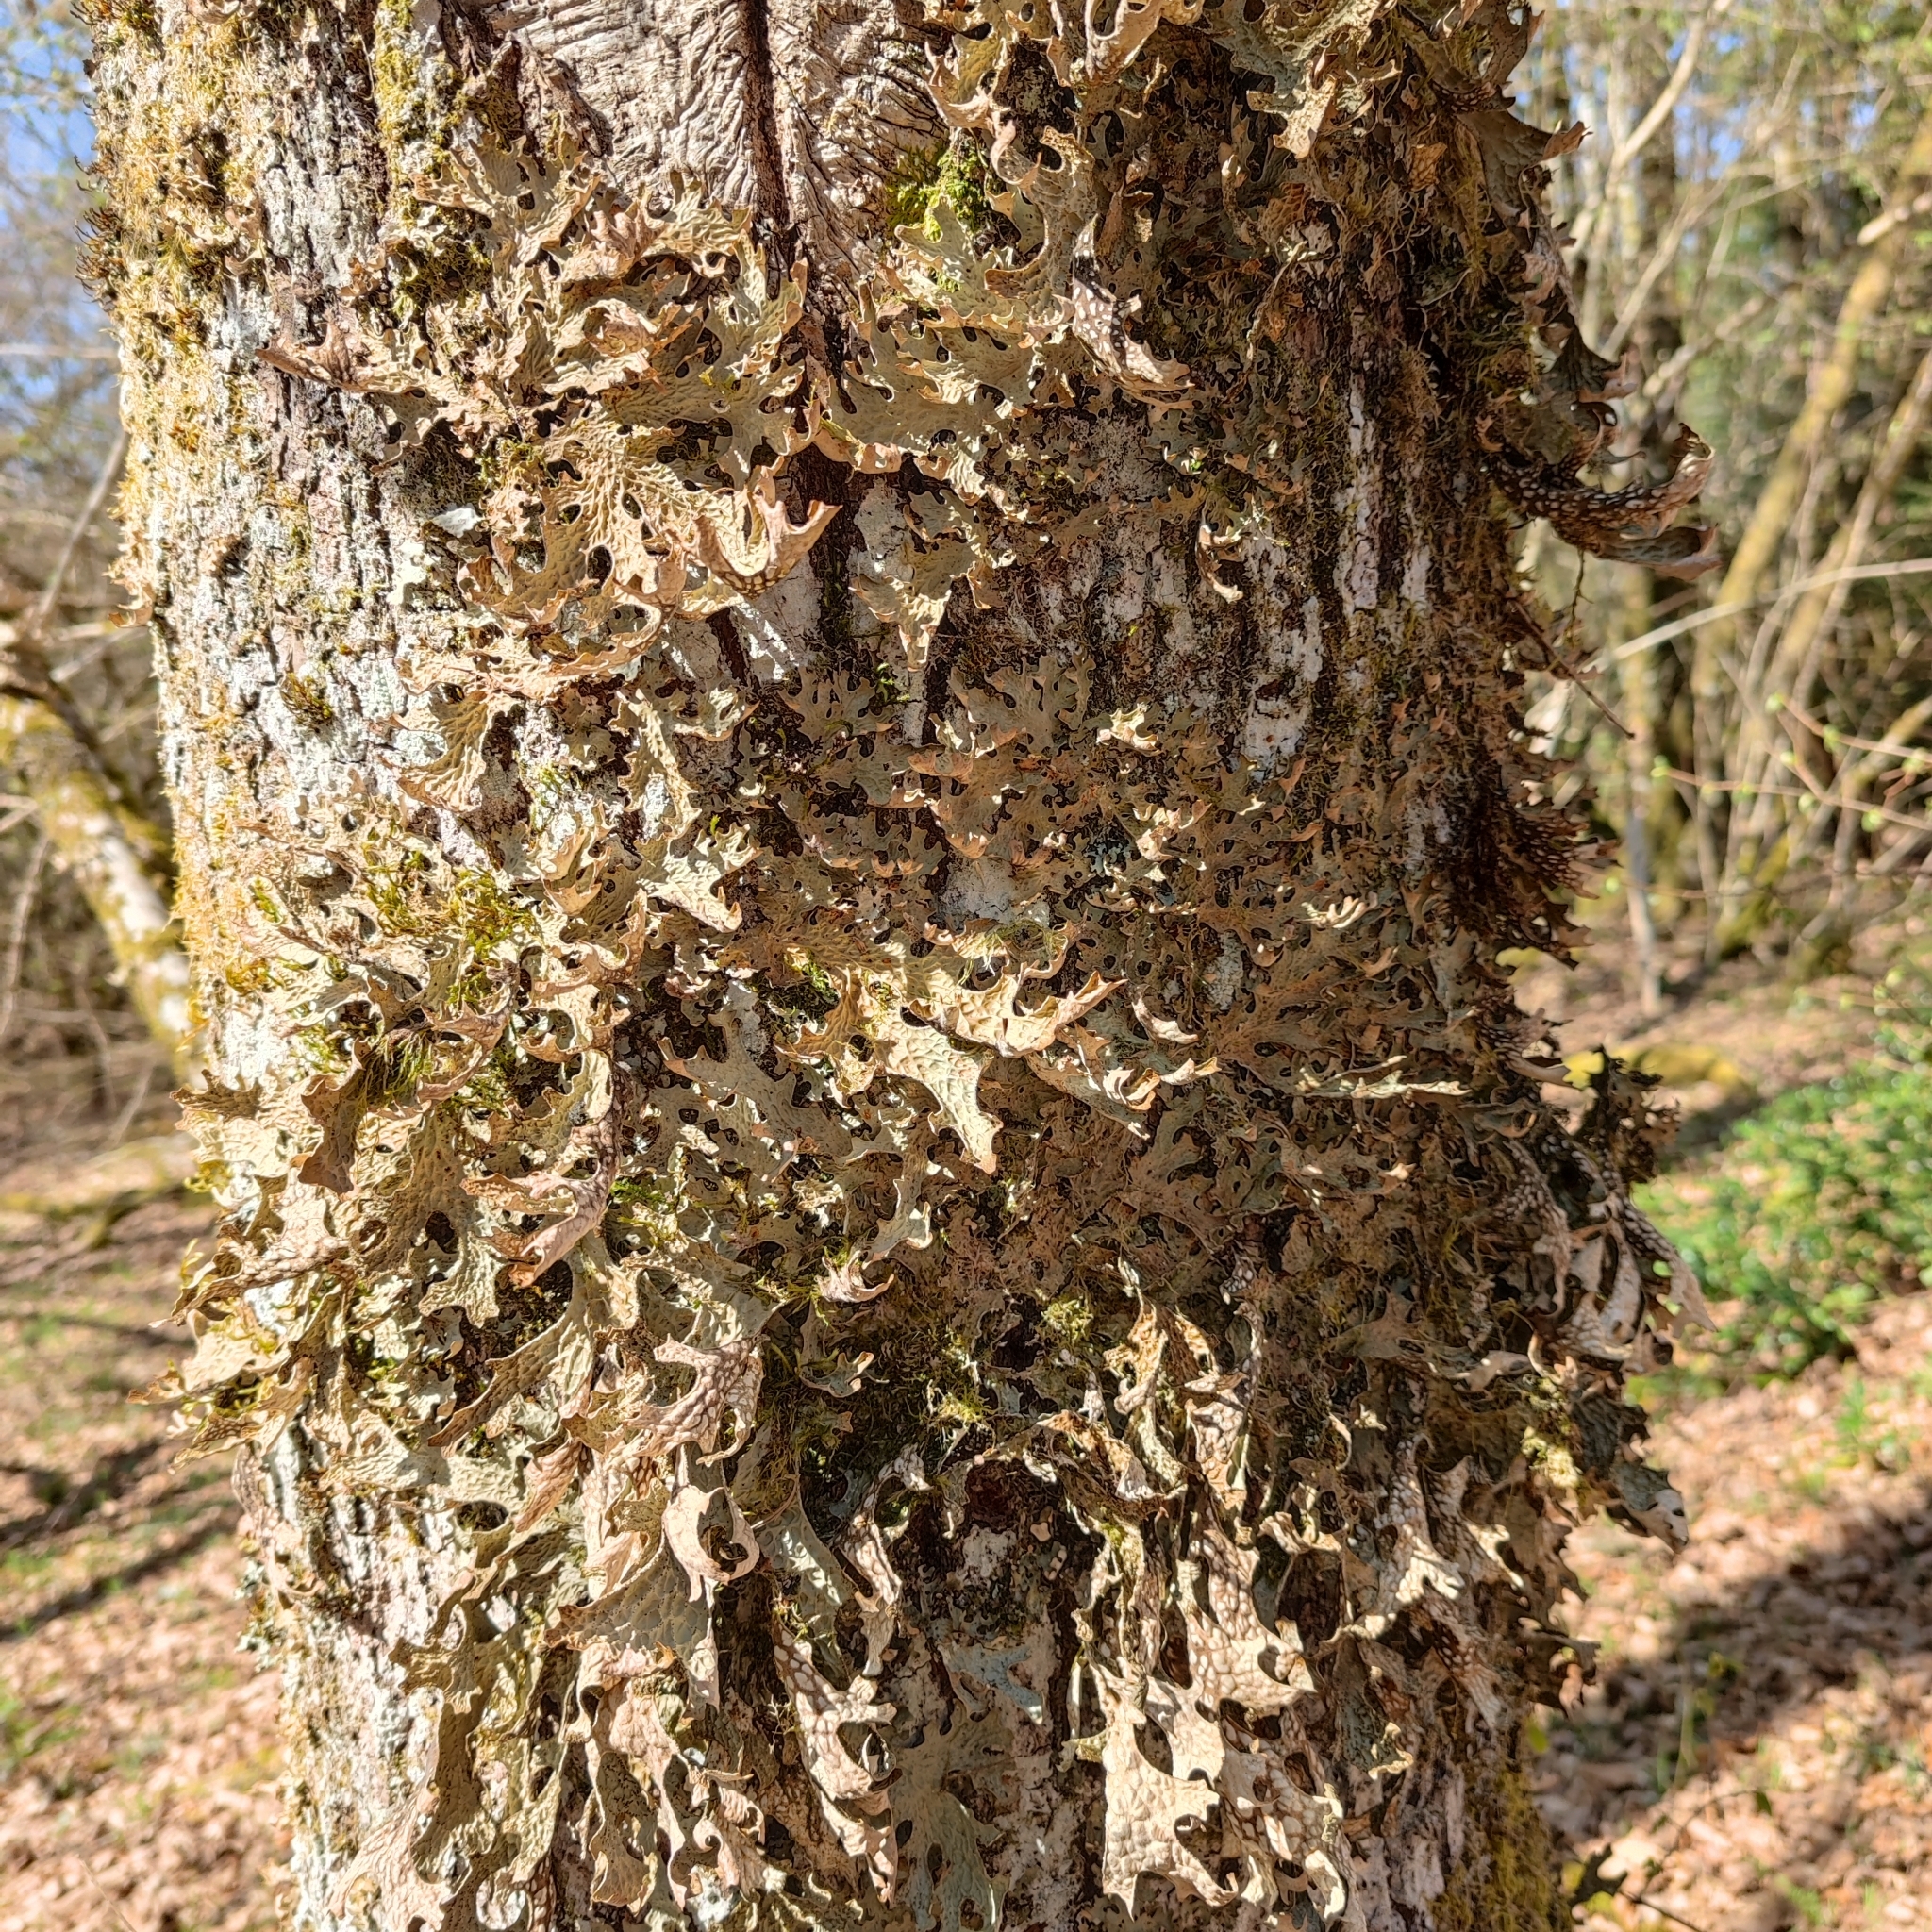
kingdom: Fungi
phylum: Ascomycota
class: Lecanoromycetes
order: Peltigerales
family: Lobariaceae
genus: Lobaria
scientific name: Lobaria pulmonaria
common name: Lungwort
